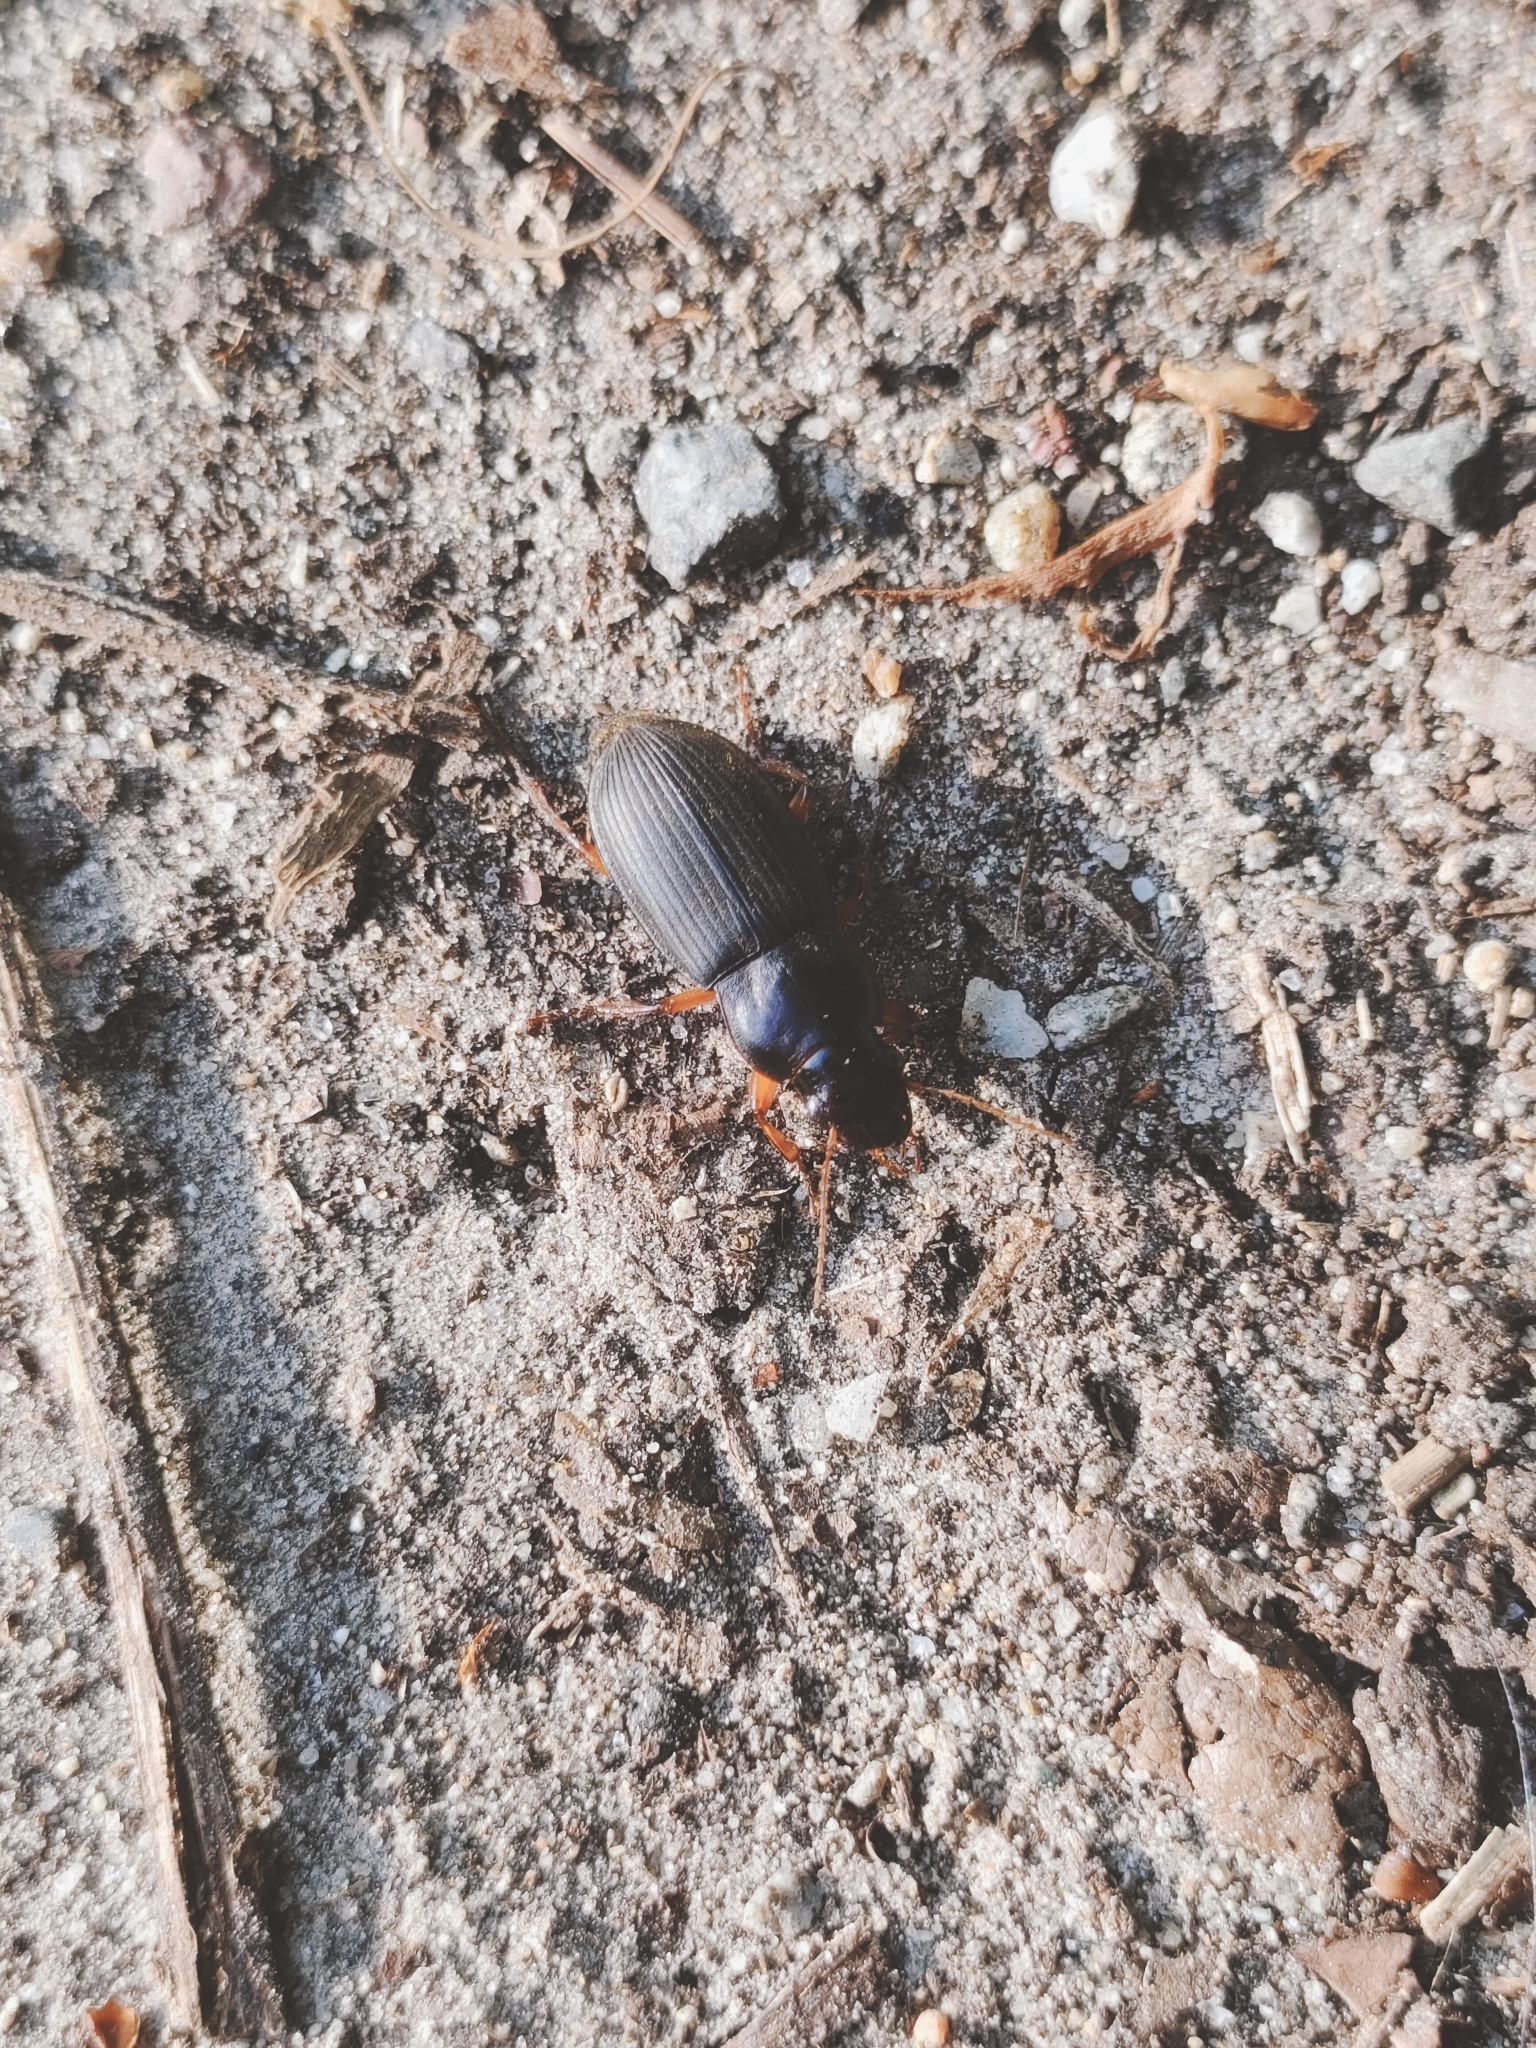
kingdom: Animalia
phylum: Arthropoda
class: Insecta
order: Coleoptera
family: Carabidae
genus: Harpalus
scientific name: Harpalus rufipes
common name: Strawberry harp ground beetle
